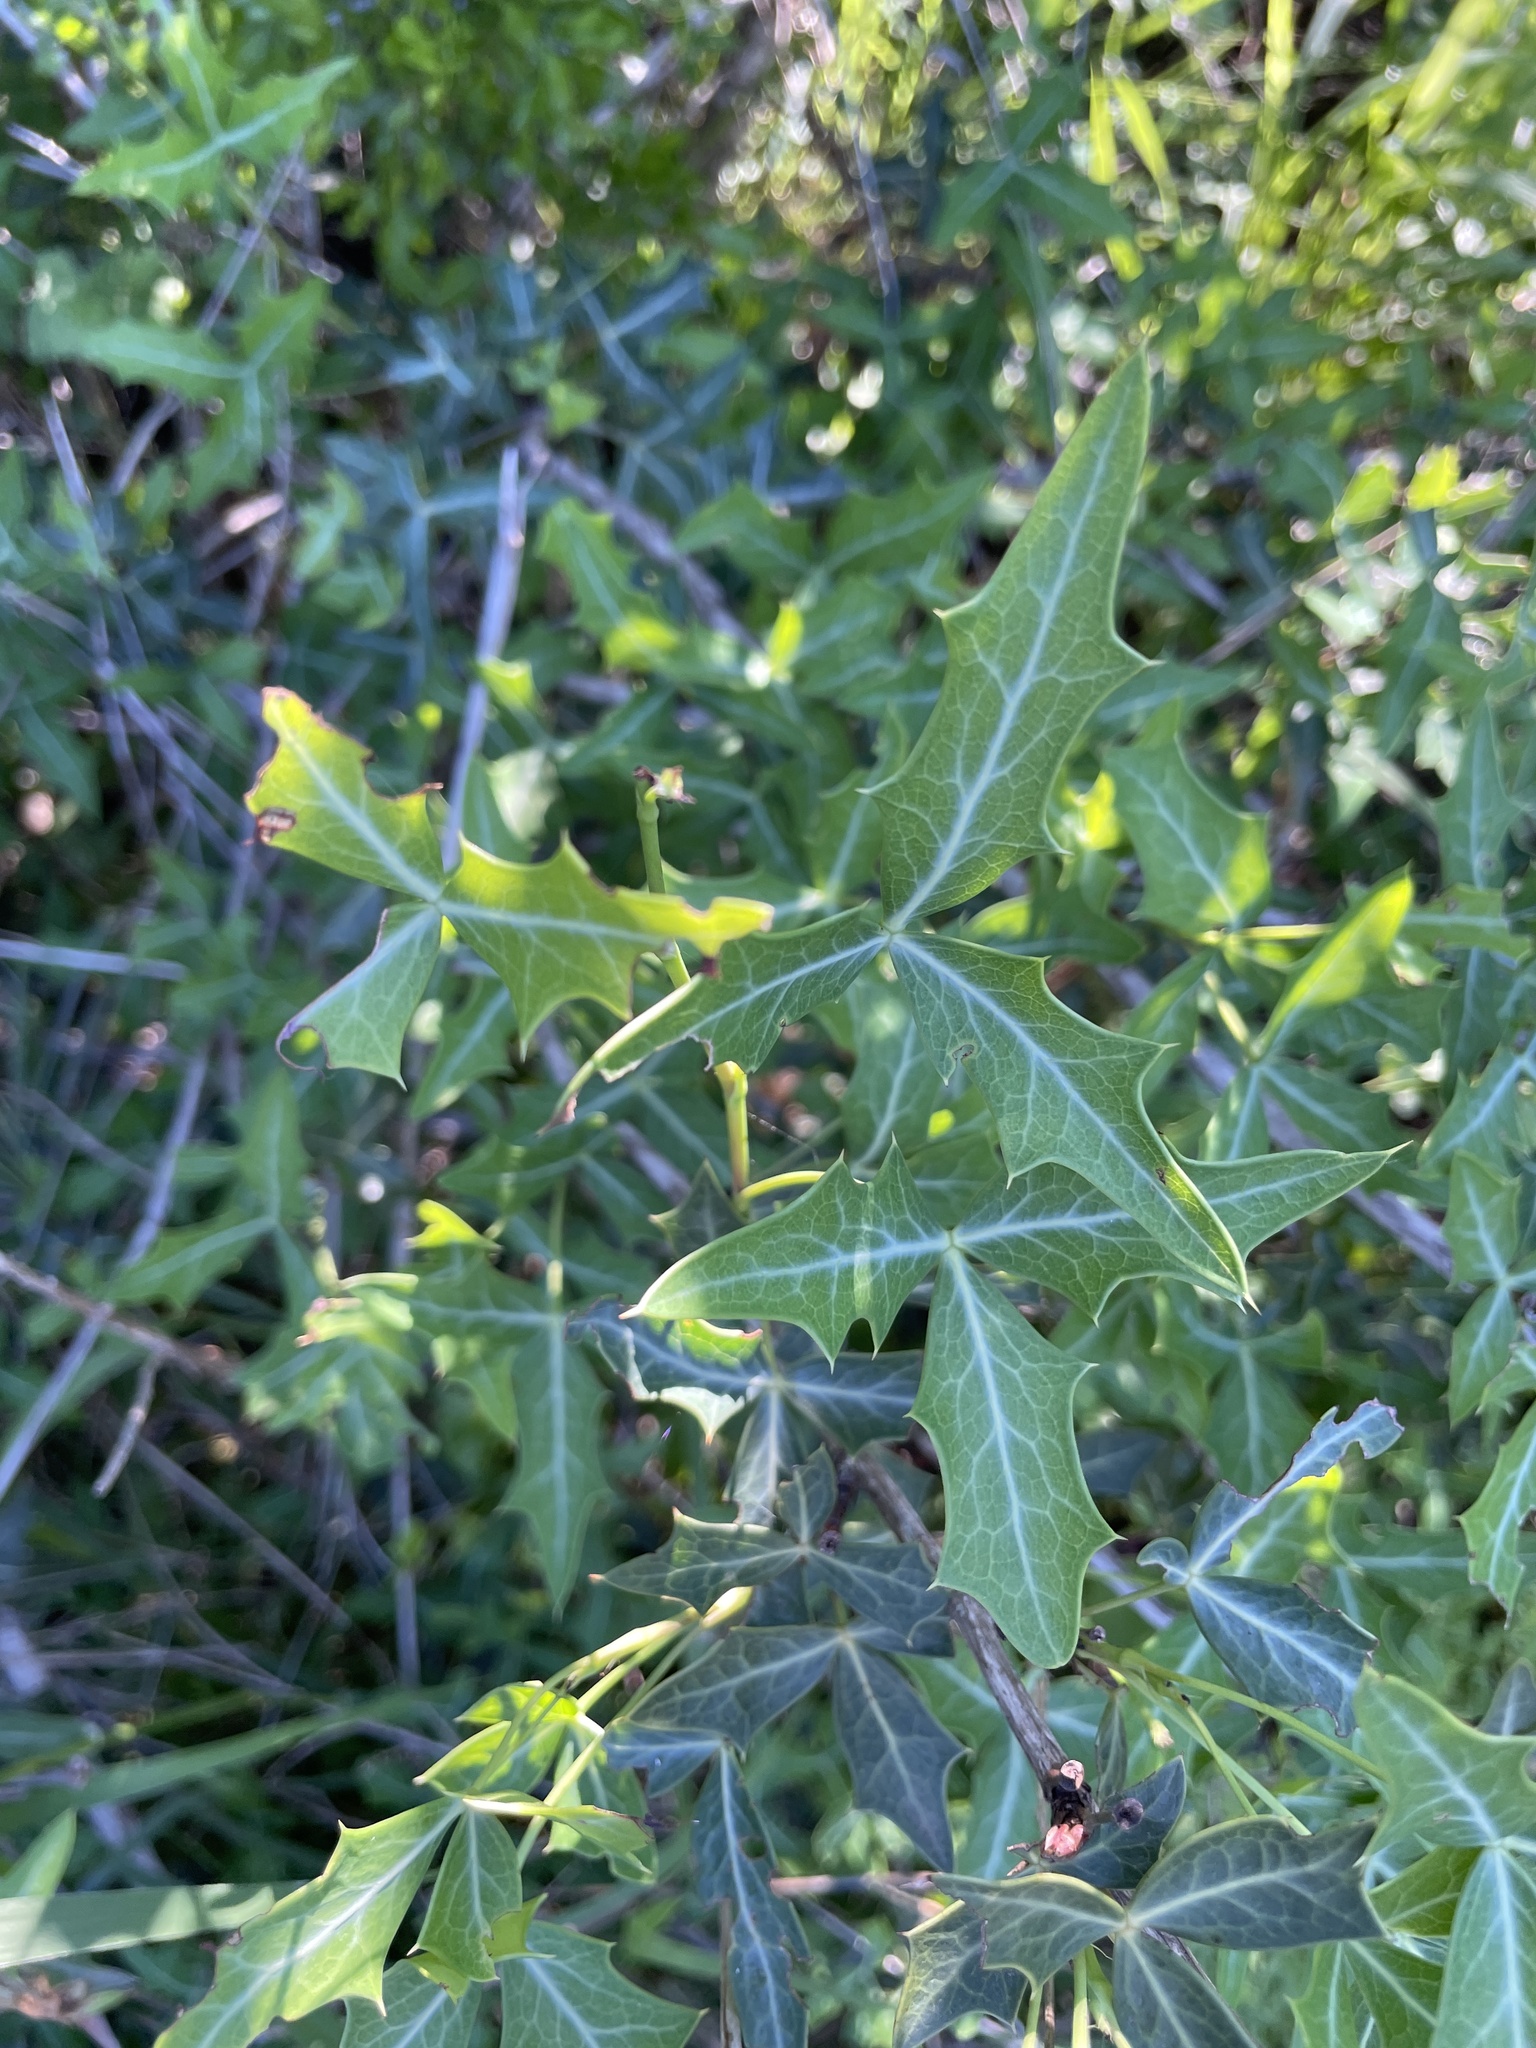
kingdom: Plantae
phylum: Tracheophyta
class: Magnoliopsida
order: Ranunculales
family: Berberidaceae
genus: Alloberberis
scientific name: Alloberberis trifoliolata
